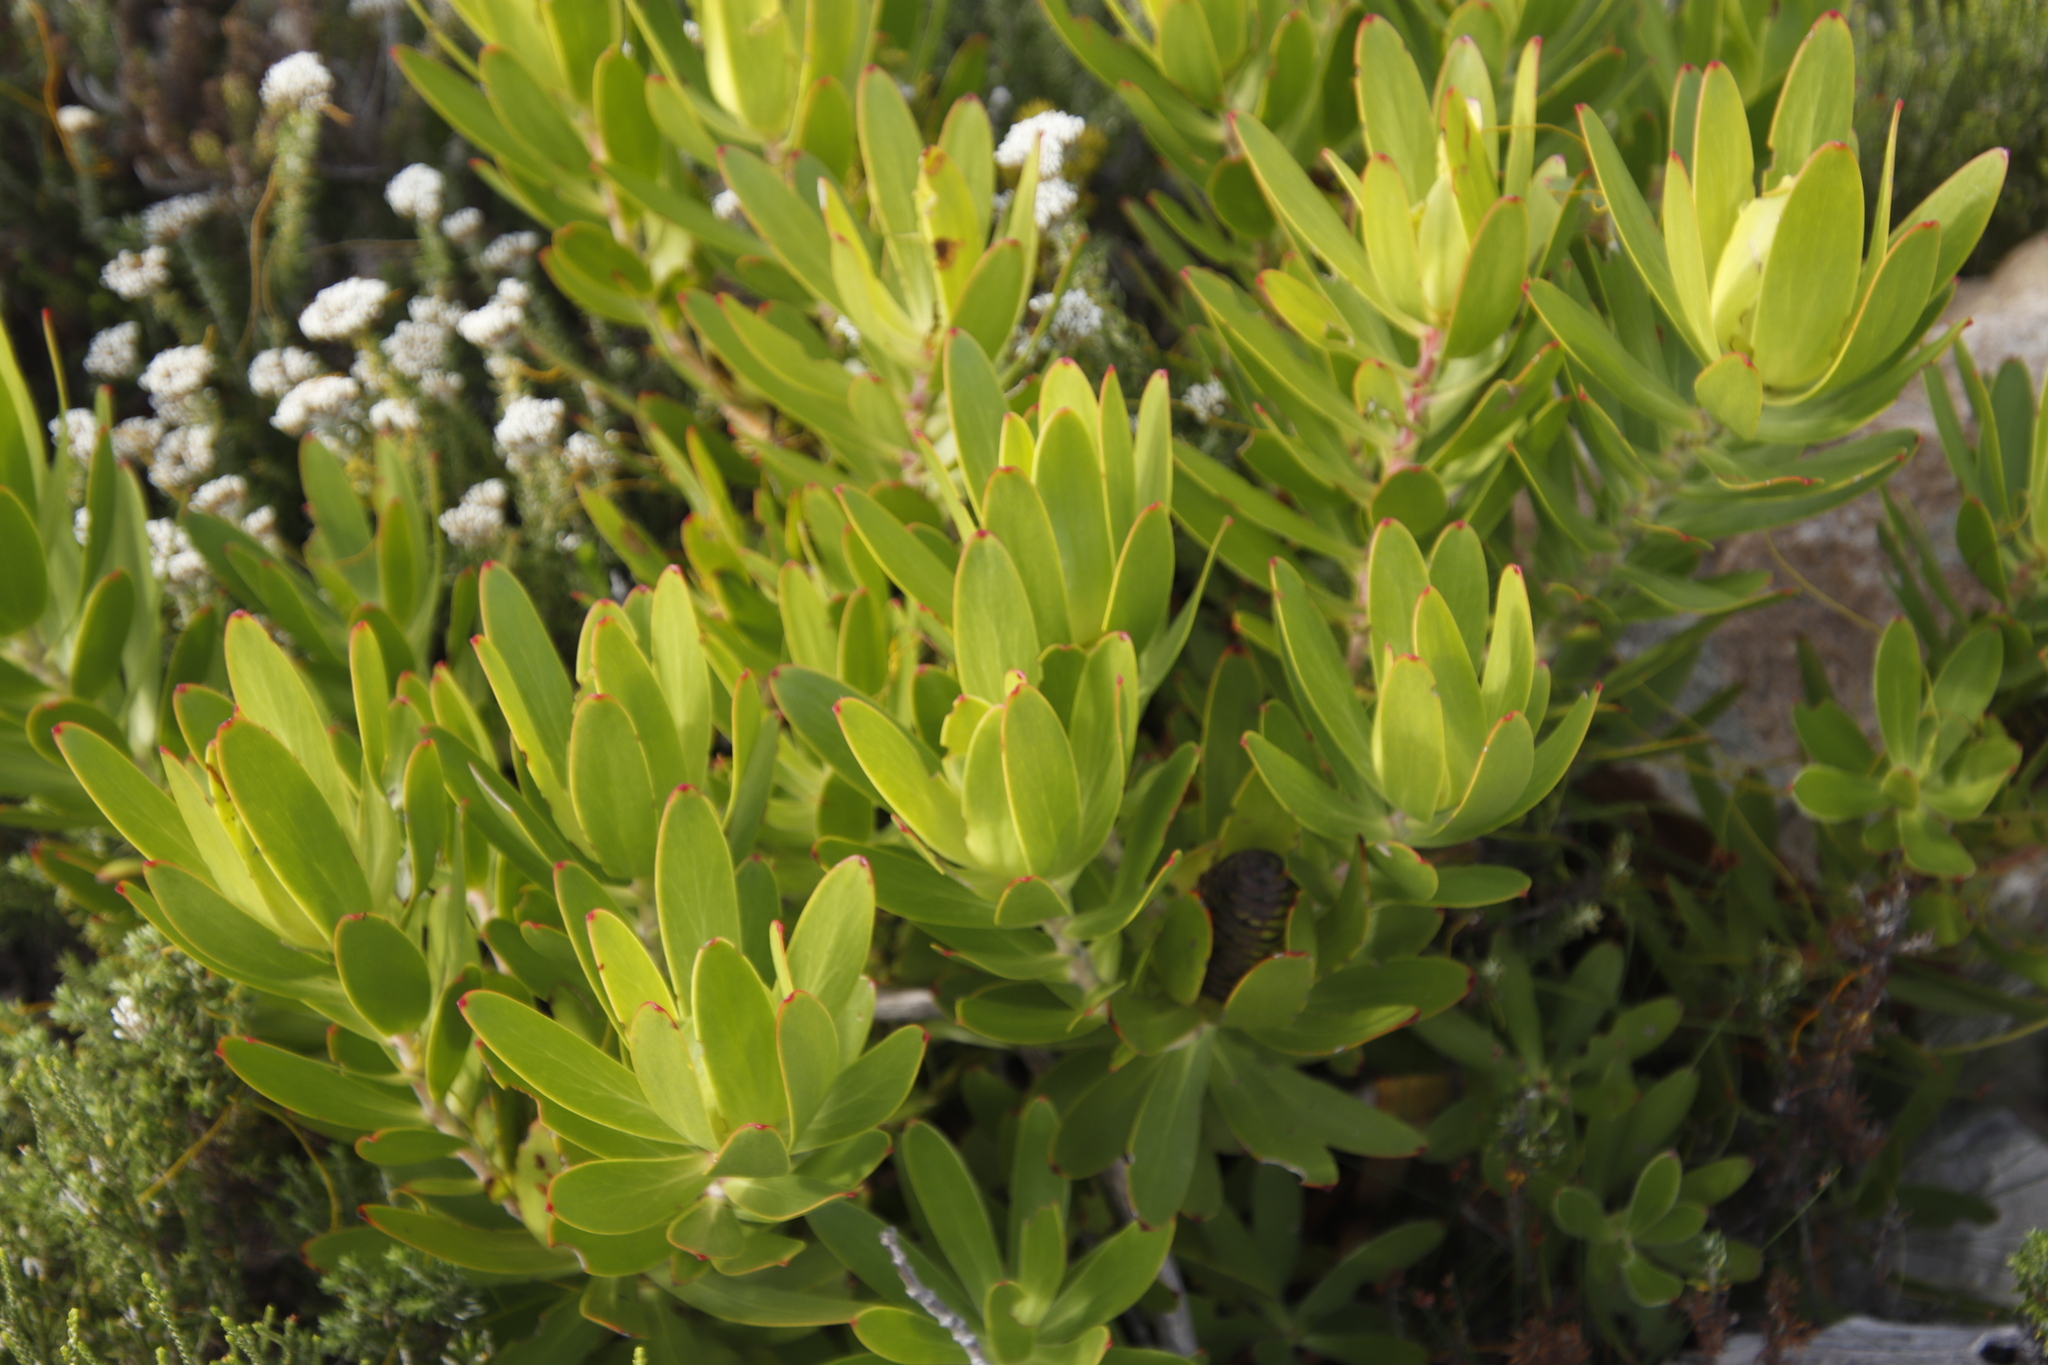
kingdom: Plantae
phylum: Tracheophyta
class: Magnoliopsida
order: Proteales
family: Proteaceae
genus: Leucadendron
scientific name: Leucadendron laureolum
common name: Golden sunshinebush
